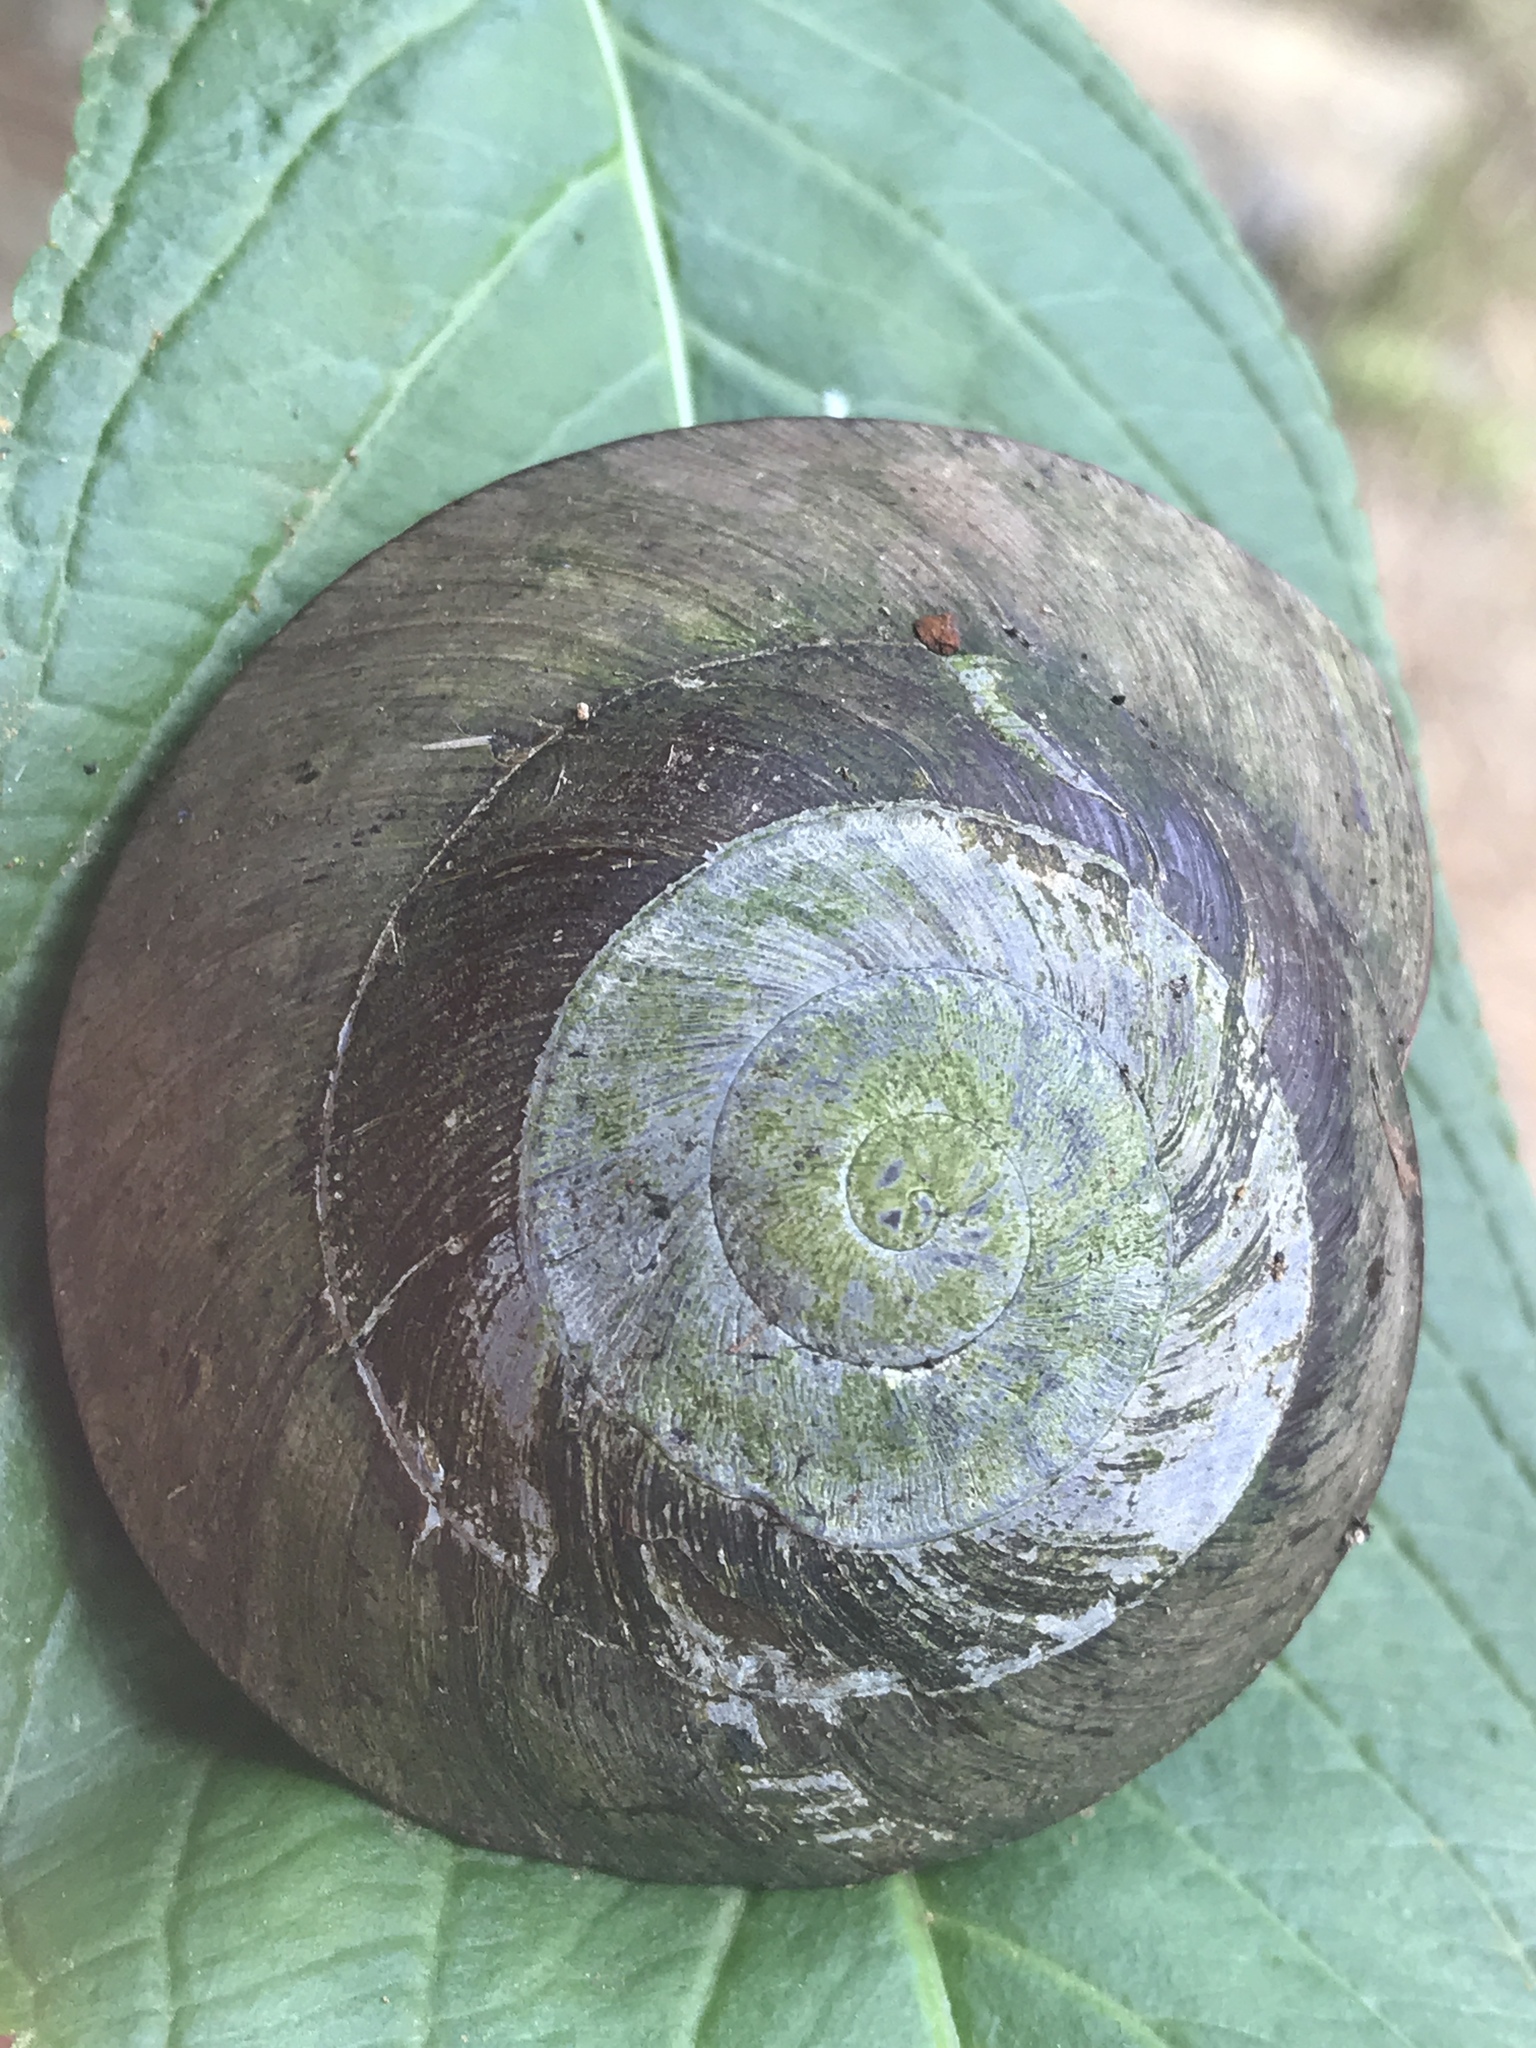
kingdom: Animalia
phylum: Mollusca
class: Gastropoda
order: Stylommatophora
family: Solaropsidae
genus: Caracolus
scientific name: Caracolus carocolla
